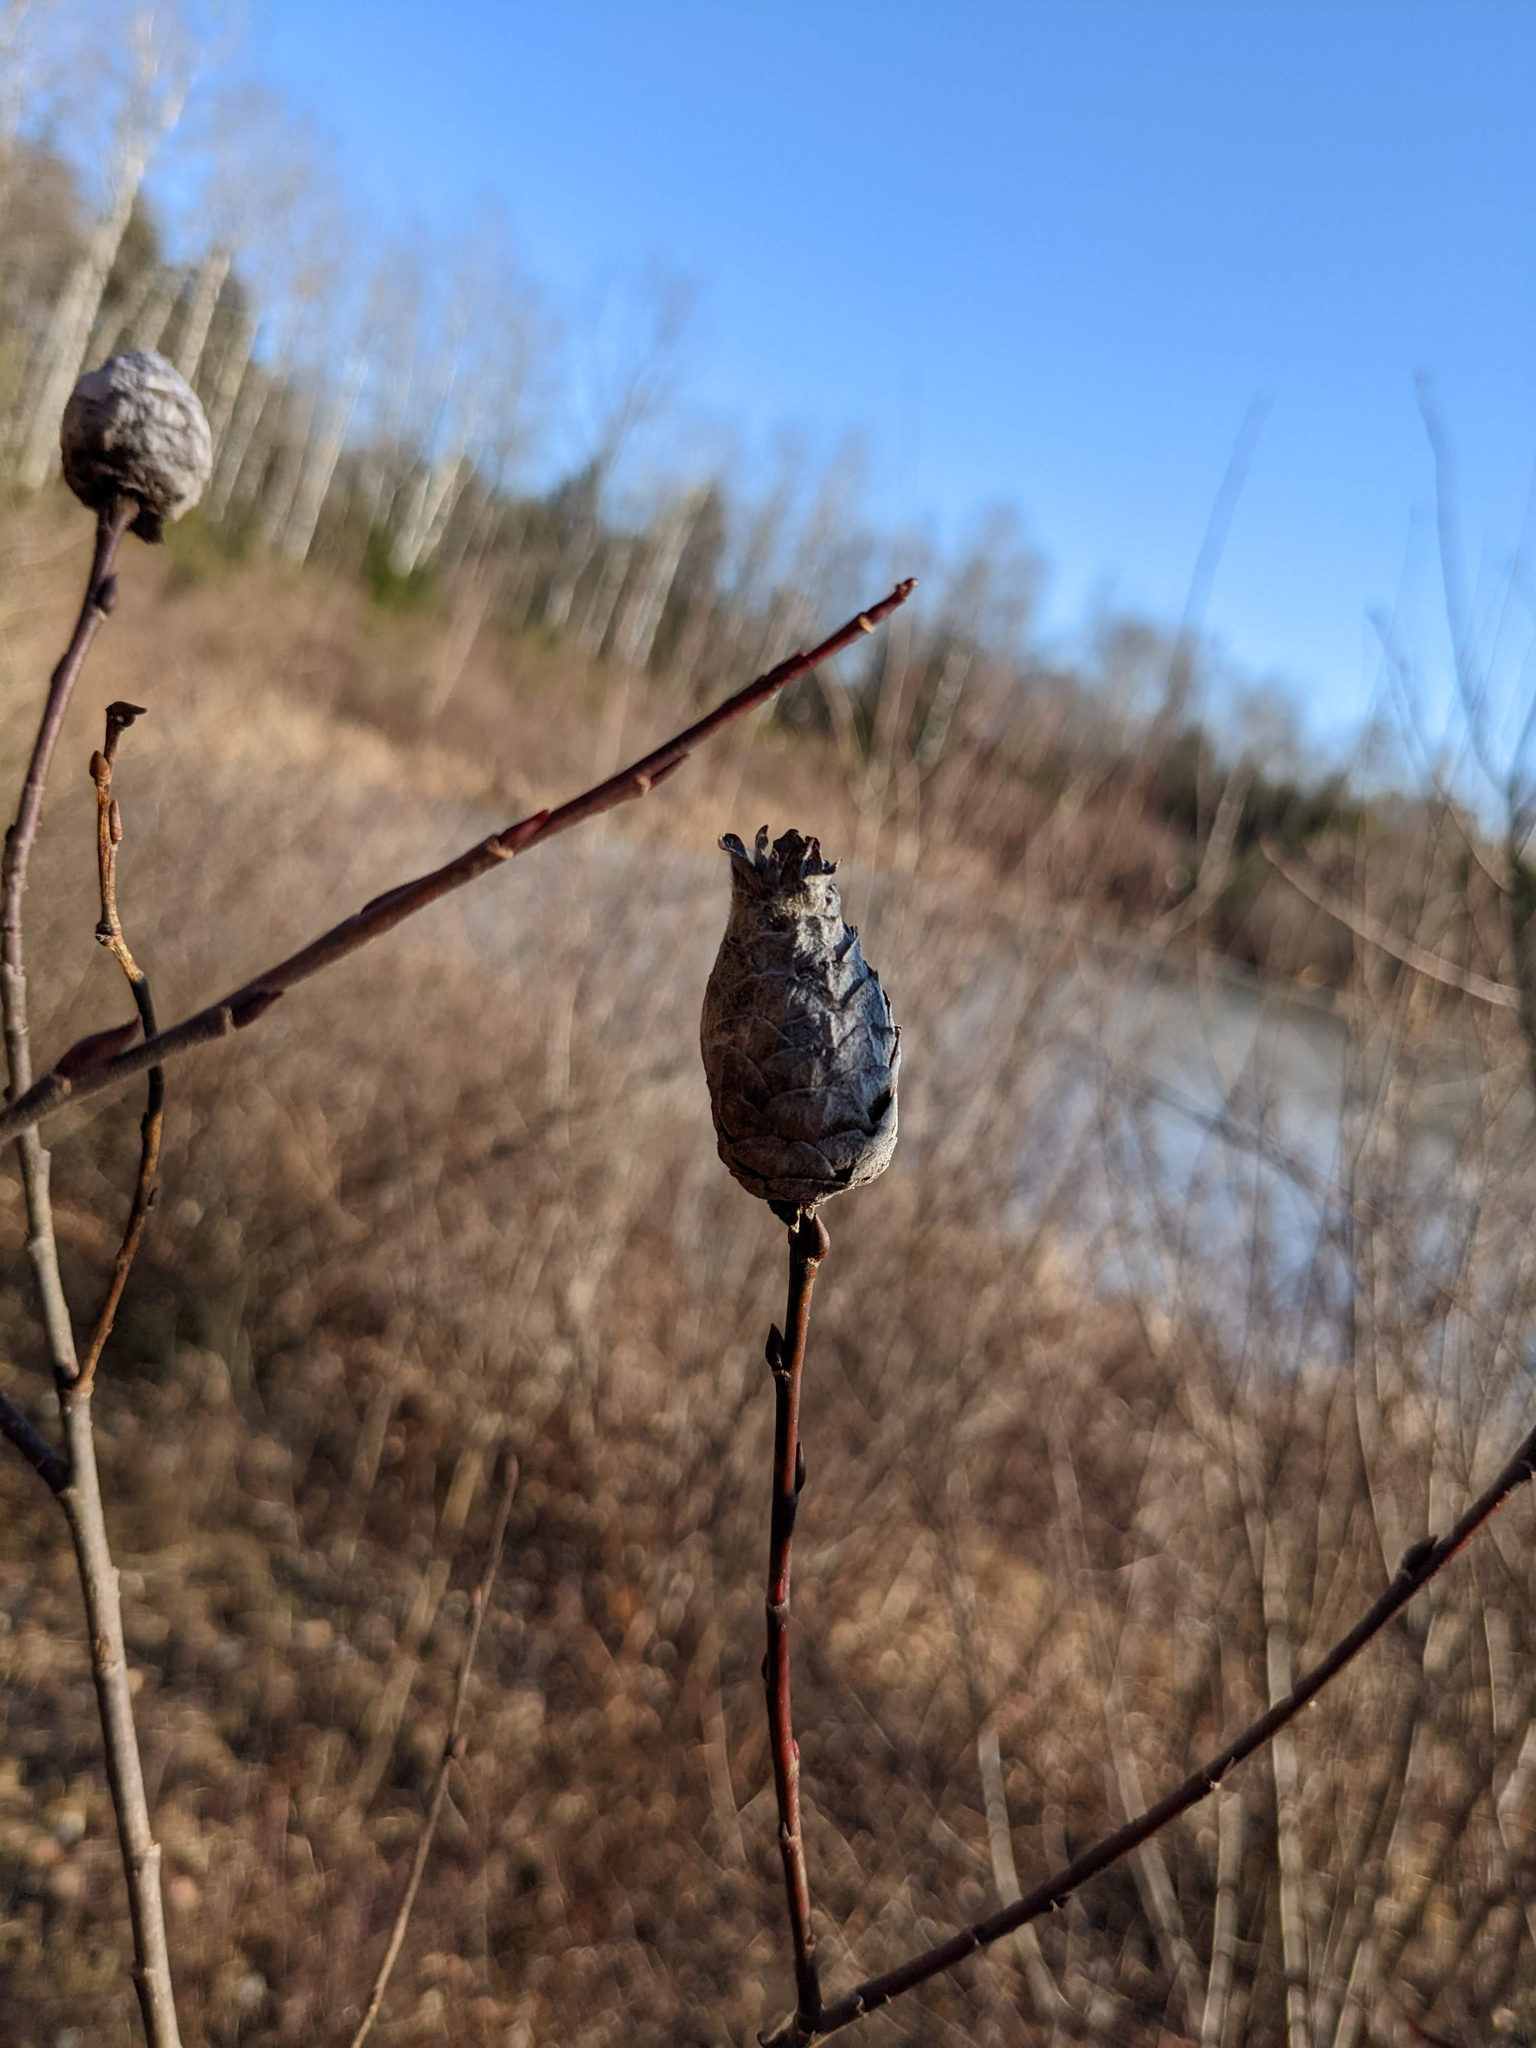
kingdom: Animalia
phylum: Arthropoda
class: Insecta
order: Diptera
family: Cecidomyiidae
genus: Rabdophaga
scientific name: Rabdophaga strobiloides
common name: Willow pinecone gall midge
